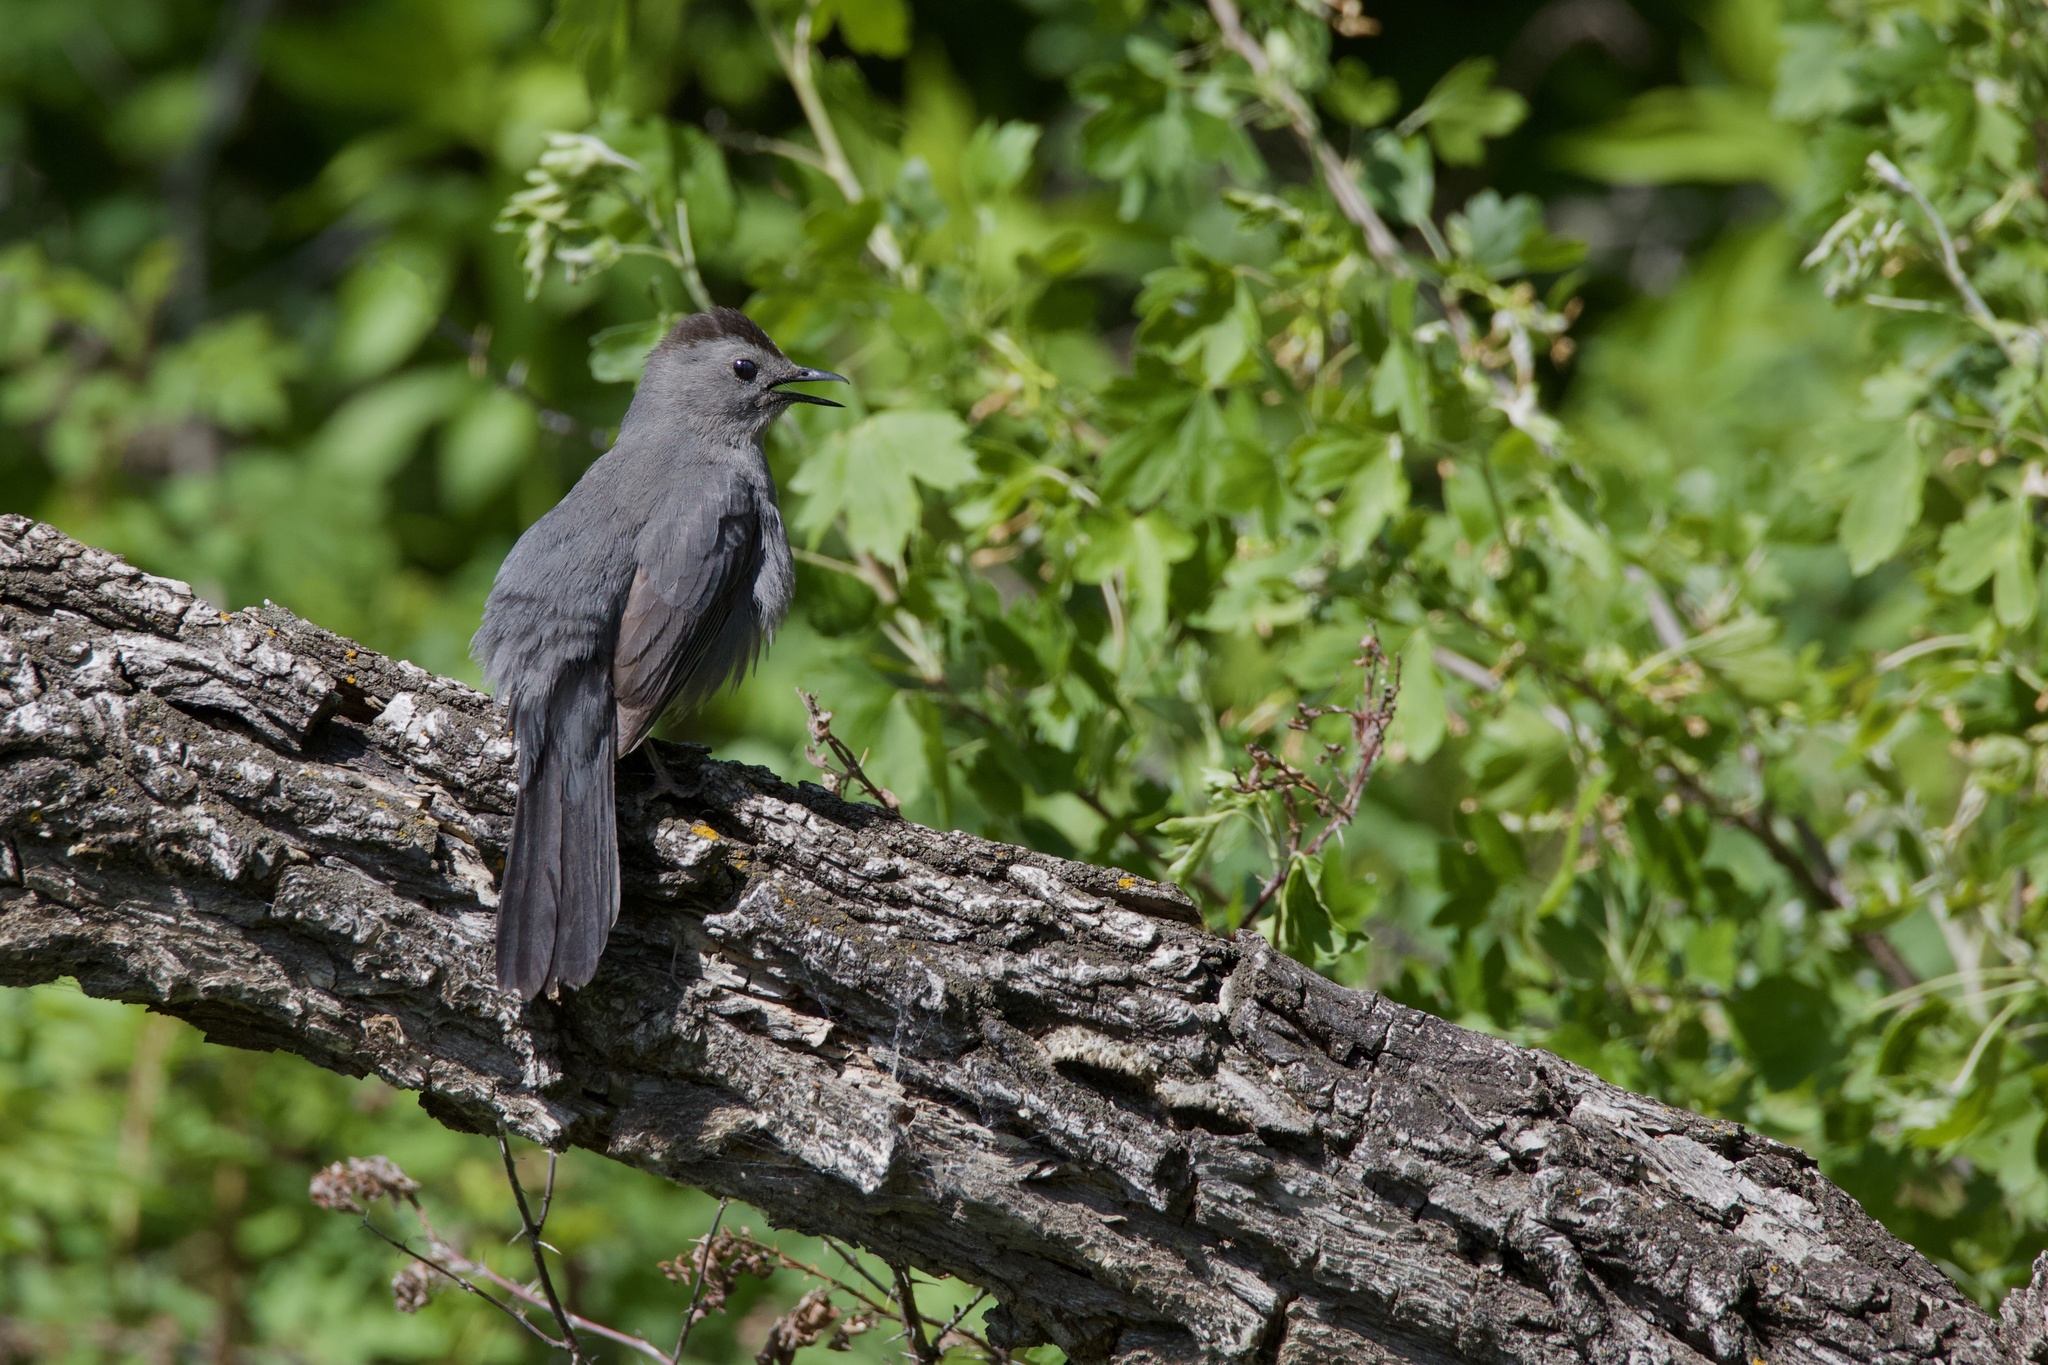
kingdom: Animalia
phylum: Chordata
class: Aves
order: Passeriformes
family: Mimidae
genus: Dumetella
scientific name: Dumetella carolinensis
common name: Gray catbird
